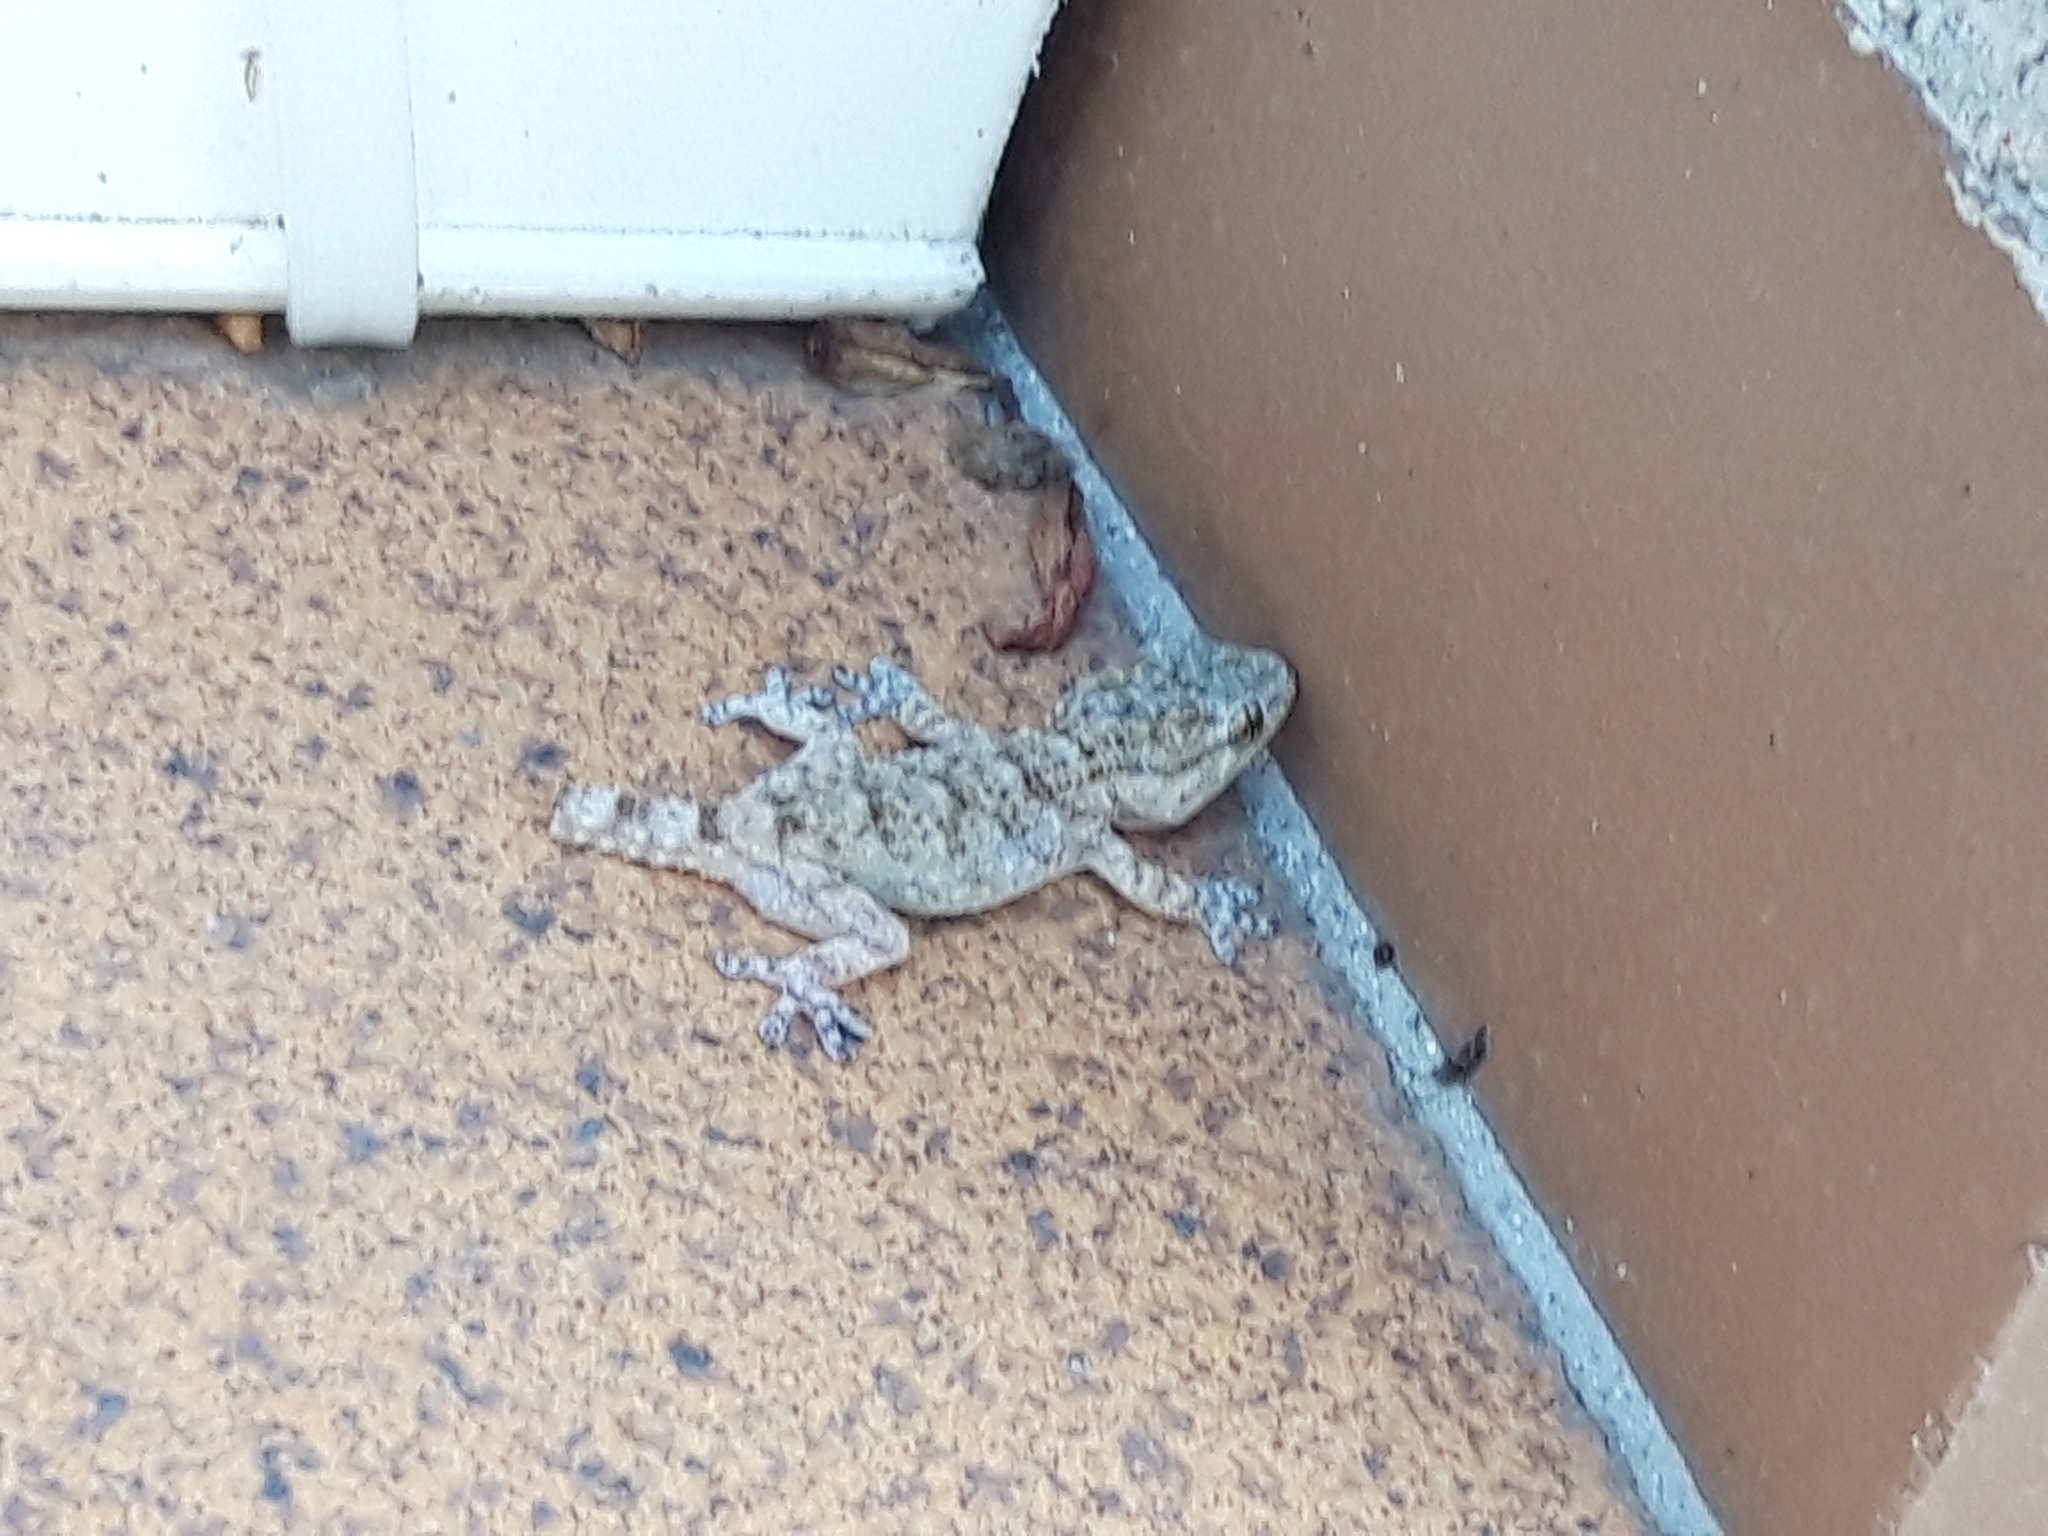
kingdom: Animalia
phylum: Chordata
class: Squamata
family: Phyllodactylidae
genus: Tarentola
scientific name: Tarentola mauritanica
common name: Moorish gecko
